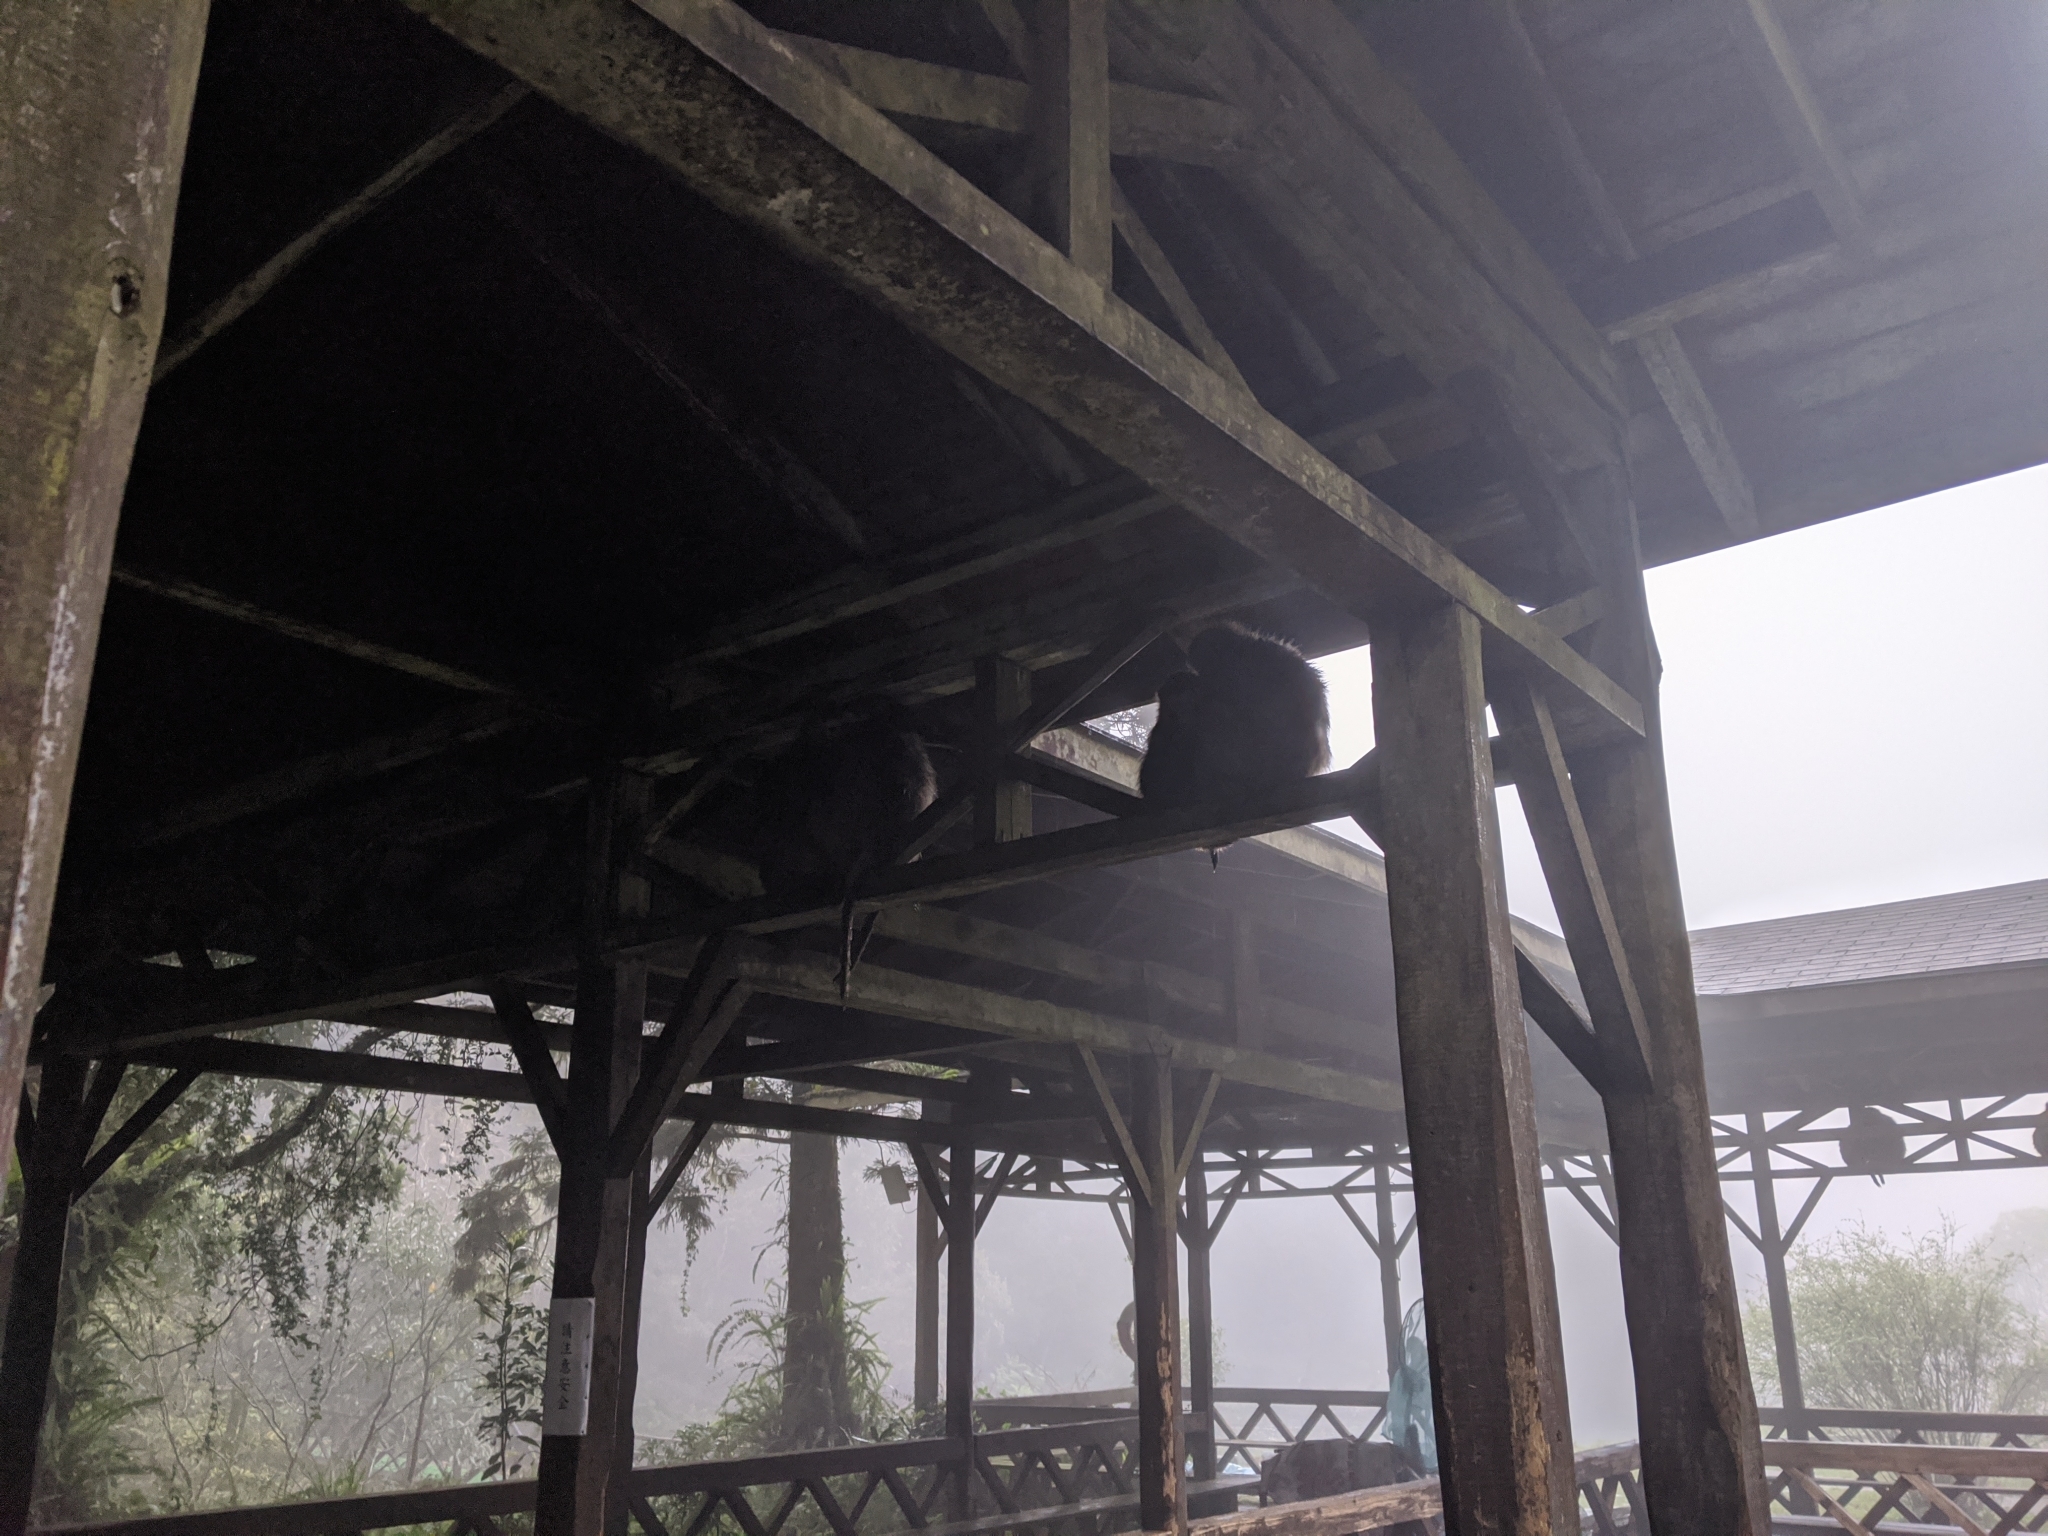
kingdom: Animalia
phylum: Chordata
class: Mammalia
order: Primates
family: Cercopithecidae
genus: Macaca
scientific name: Macaca cyclopis
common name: Formosan rock macaque
